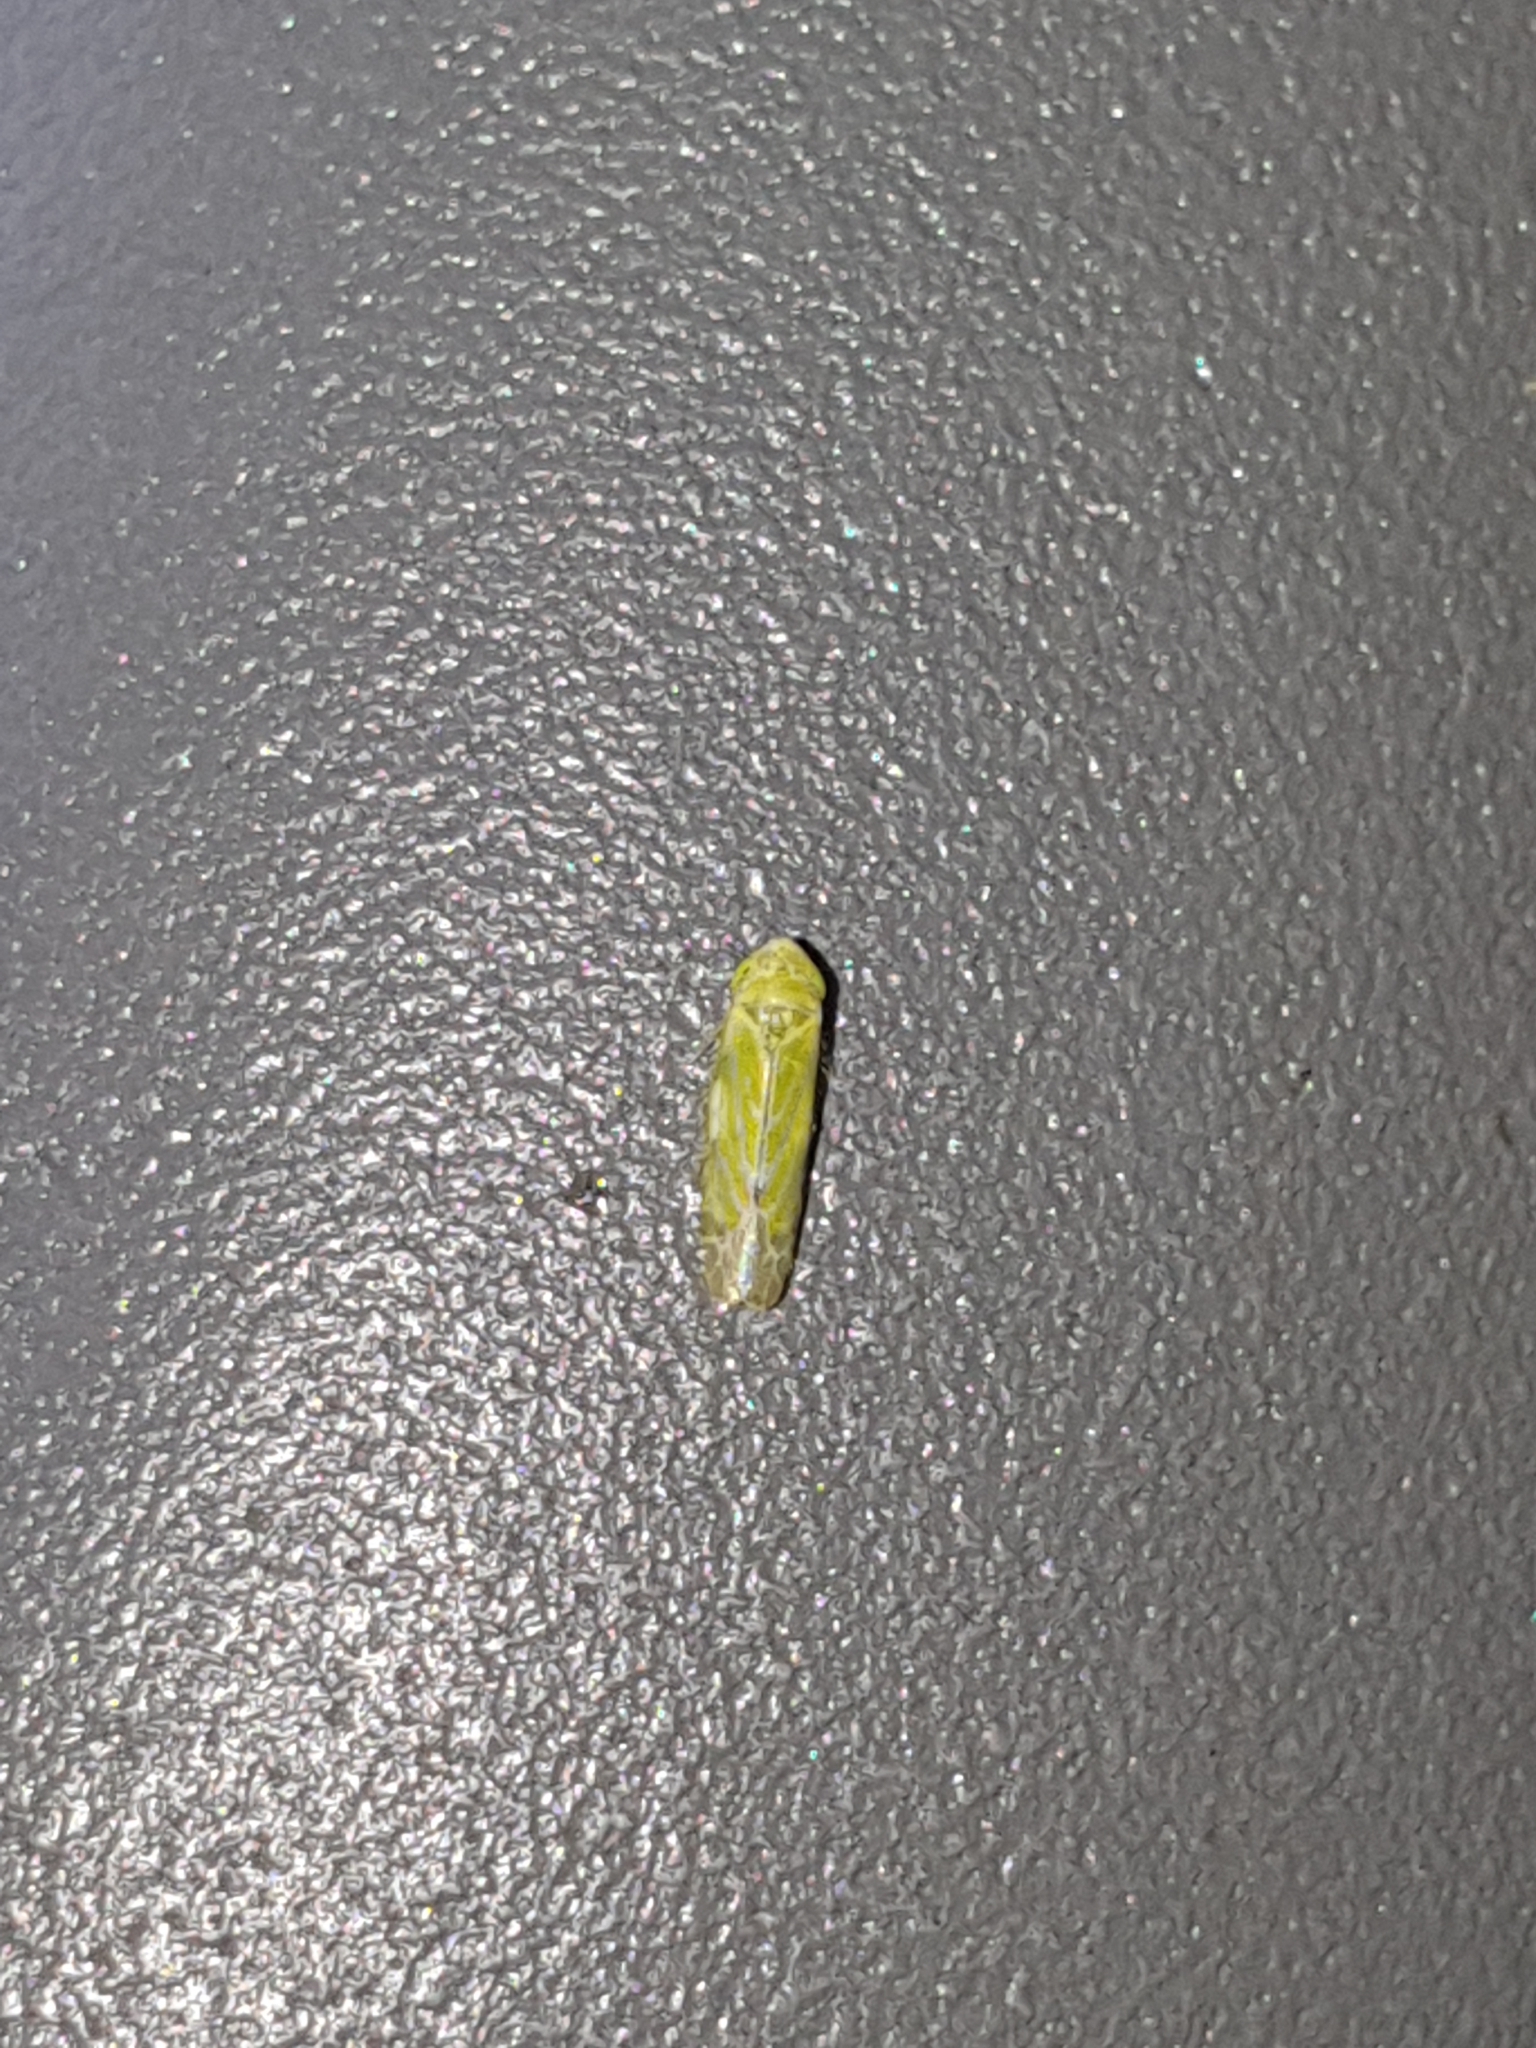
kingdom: Animalia
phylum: Arthropoda
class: Insecta
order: Hemiptera
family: Cicadellidae
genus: Liguropia
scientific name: Liguropia juniperi
